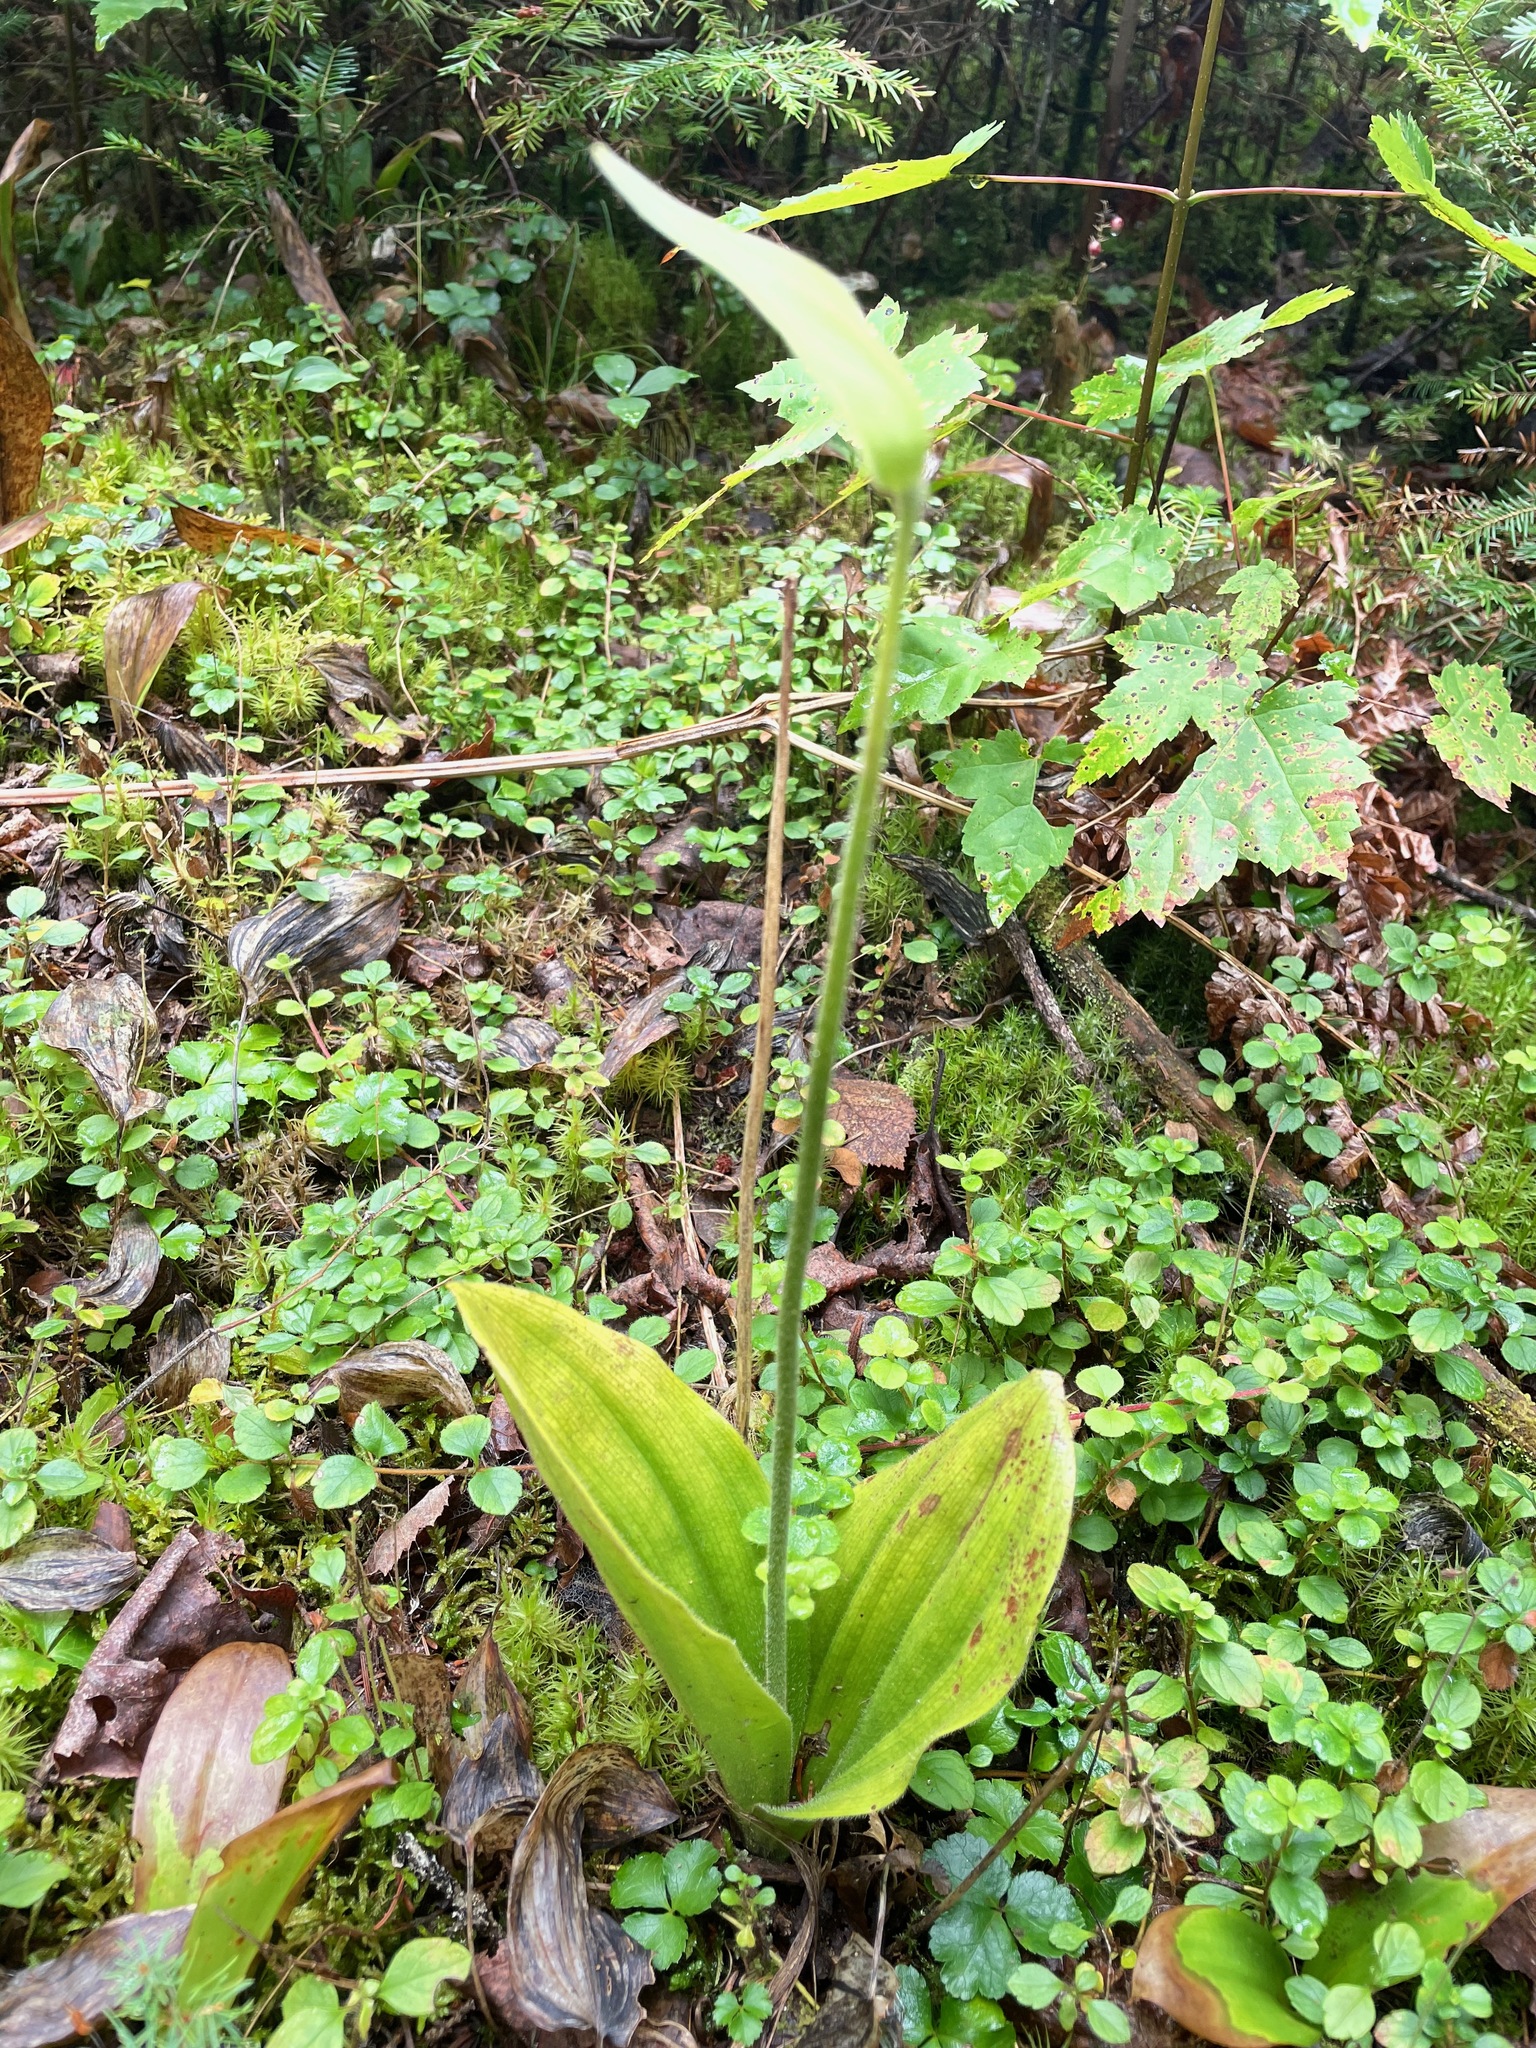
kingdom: Plantae
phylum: Tracheophyta
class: Liliopsida
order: Asparagales
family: Orchidaceae
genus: Cypripedium
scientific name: Cypripedium acaule
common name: Pink lady's-slipper
